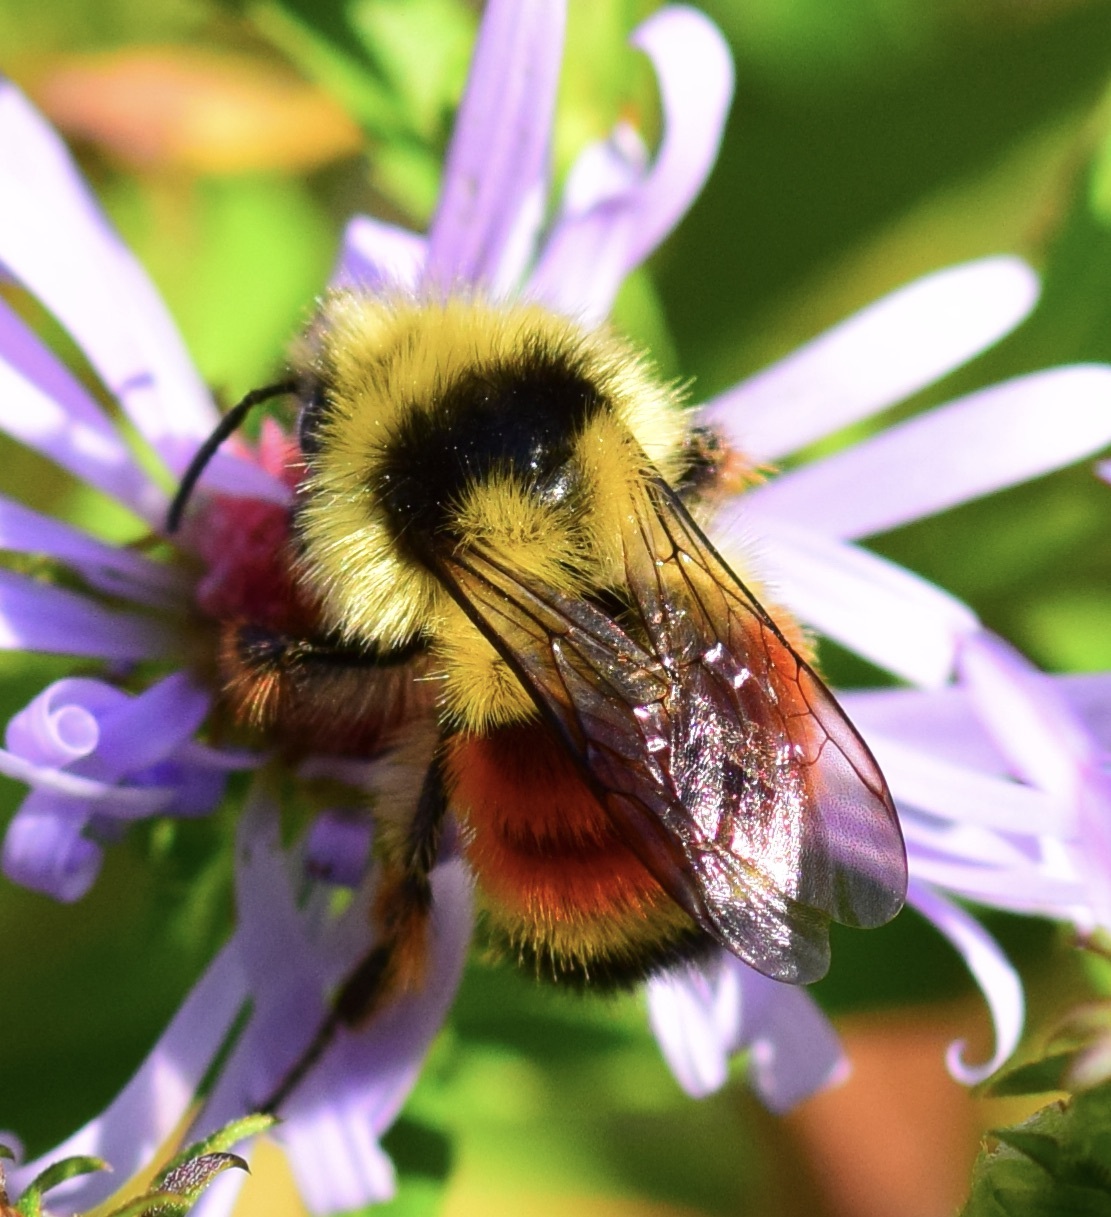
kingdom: Animalia
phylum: Arthropoda
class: Insecta
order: Hymenoptera
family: Apidae
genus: Bombus
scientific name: Bombus ternarius
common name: Tri-colored bumble bee
